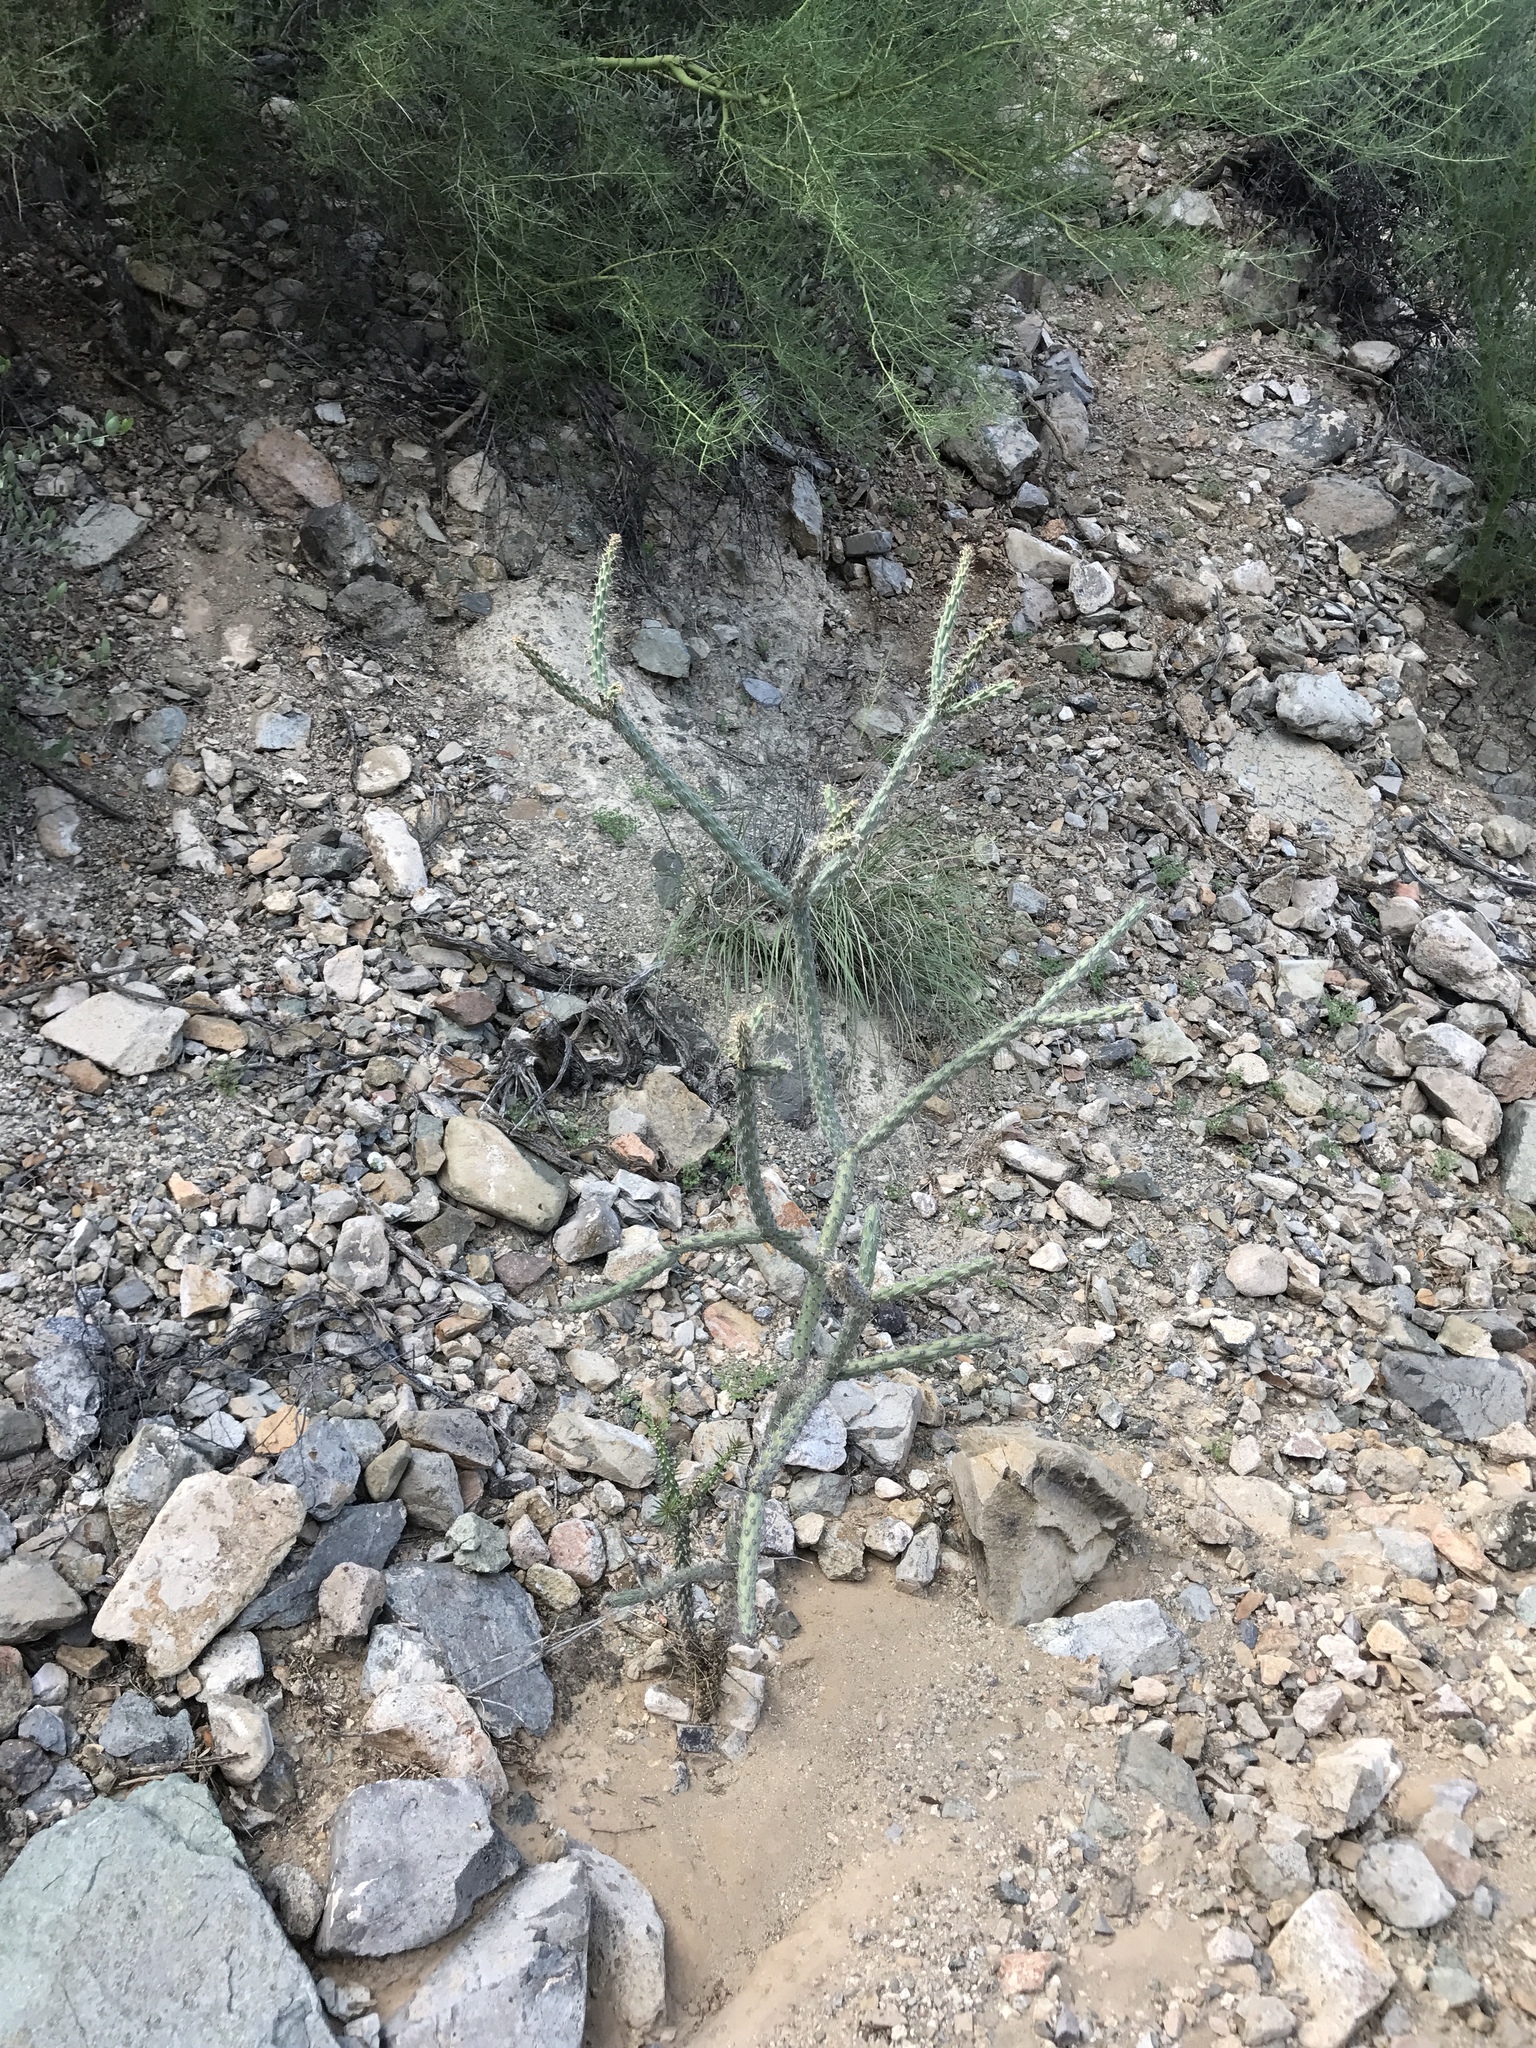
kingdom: Plantae
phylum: Tracheophyta
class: Magnoliopsida
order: Caryophyllales
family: Cactaceae
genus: Cylindropuntia
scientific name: Cylindropuntia imbricata
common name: Candelabrum cactus
